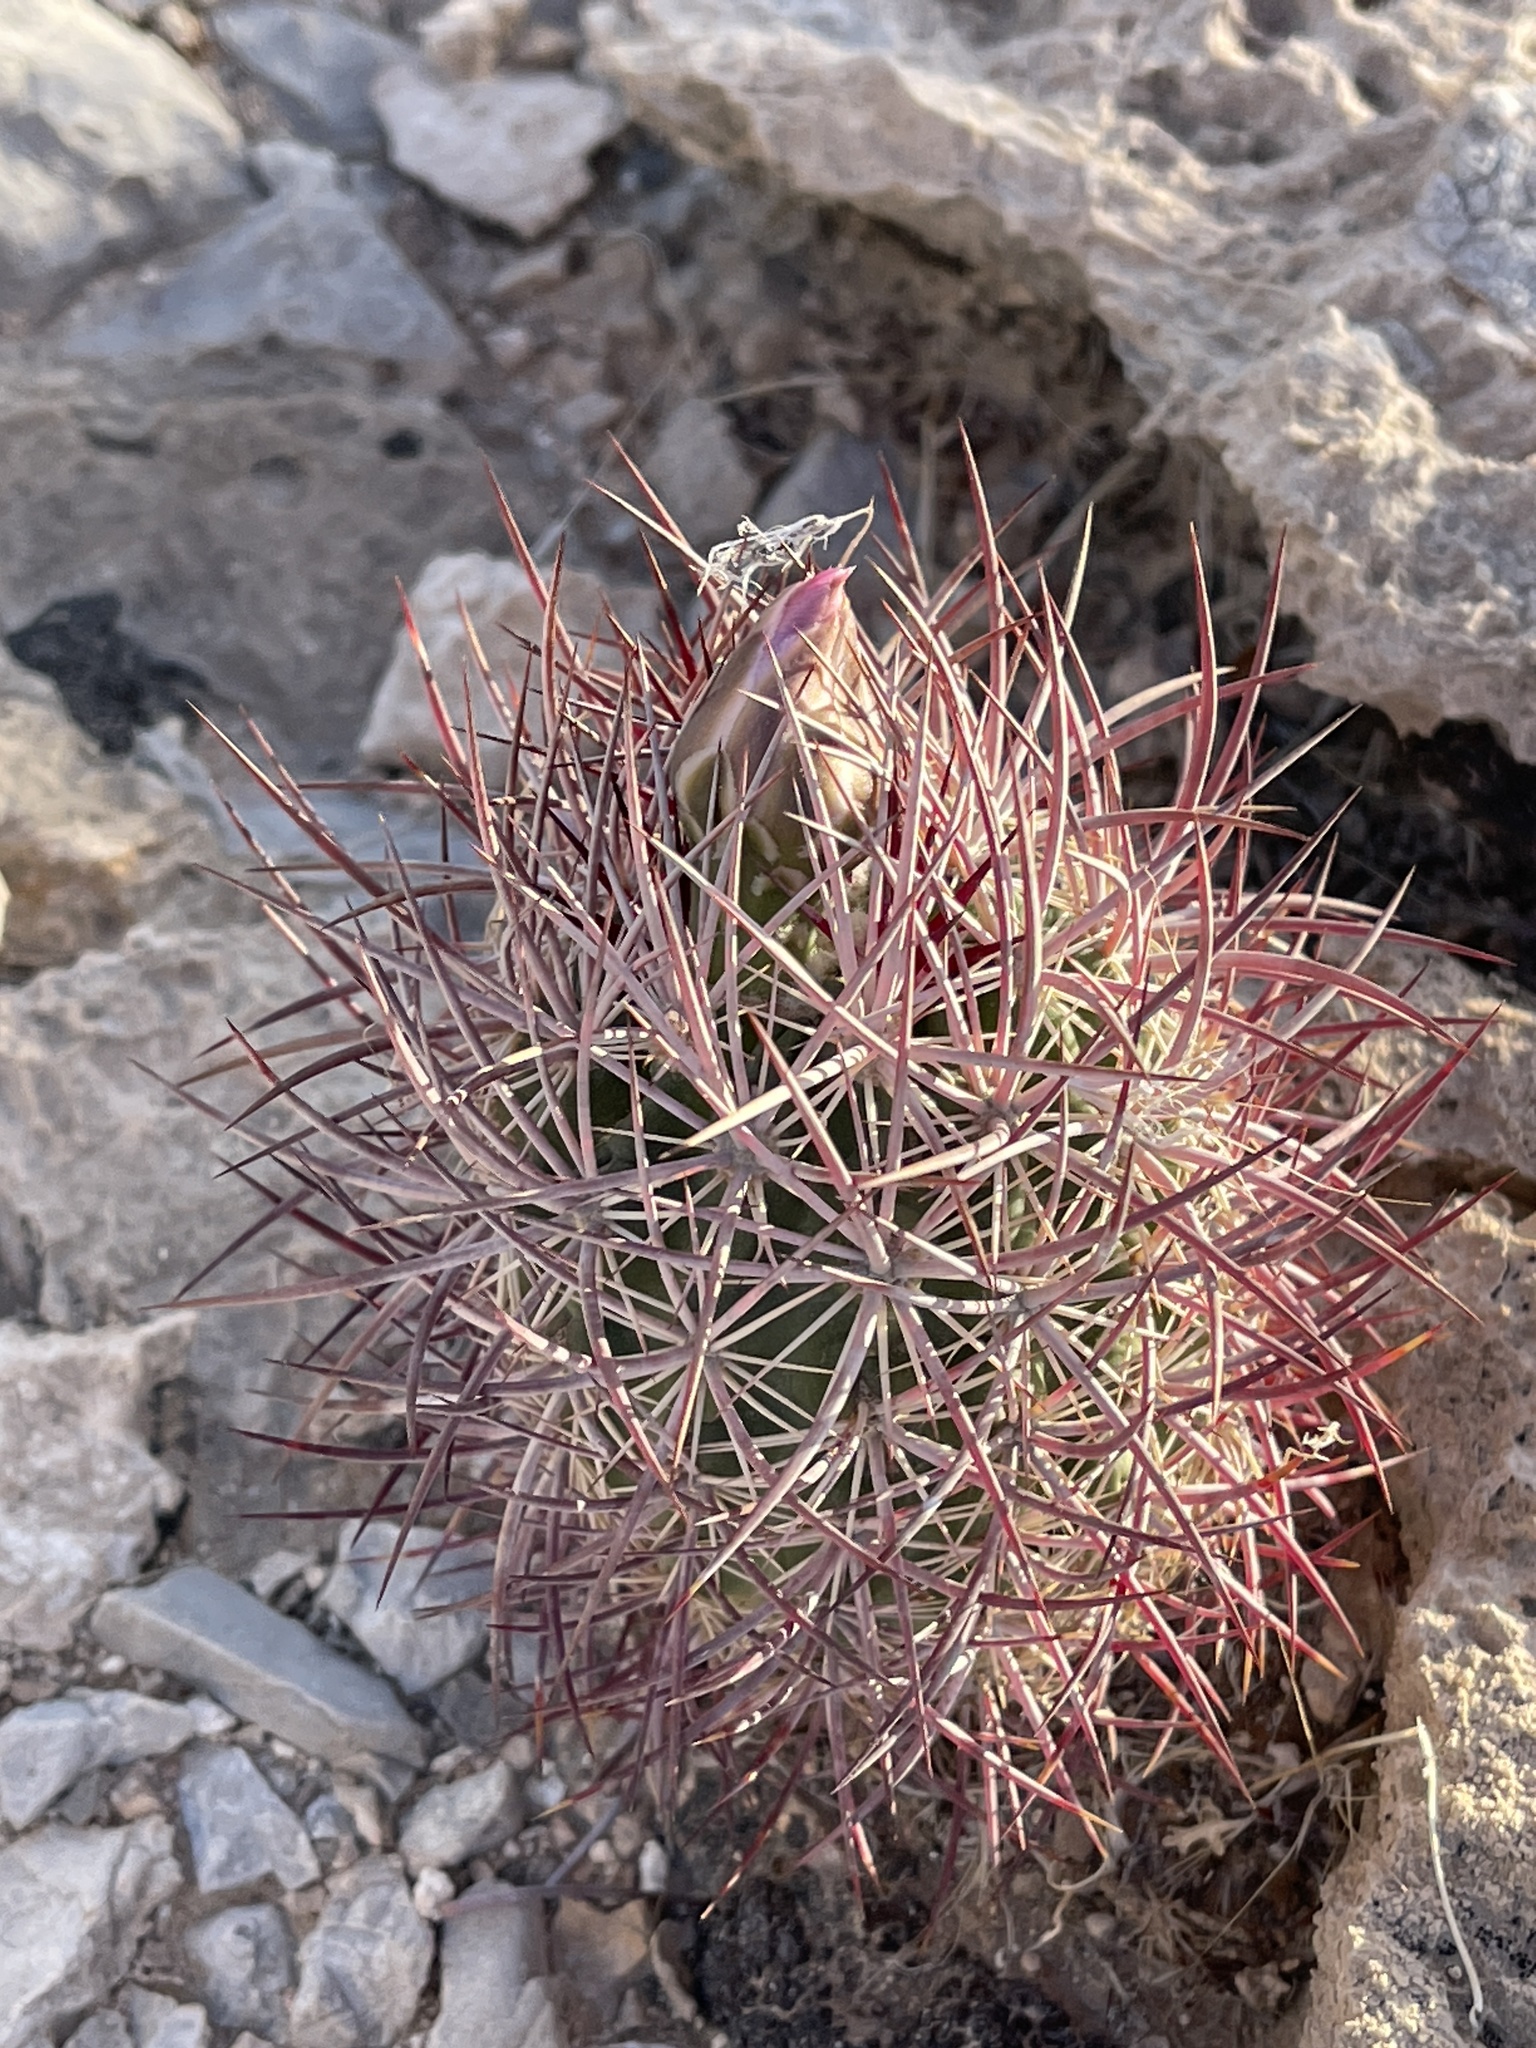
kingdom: Plantae
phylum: Tracheophyta
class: Magnoliopsida
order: Caryophyllales
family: Cactaceae
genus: Sclerocactus
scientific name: Sclerocactus johnsonii
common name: Eight-spine fishhook cactus
